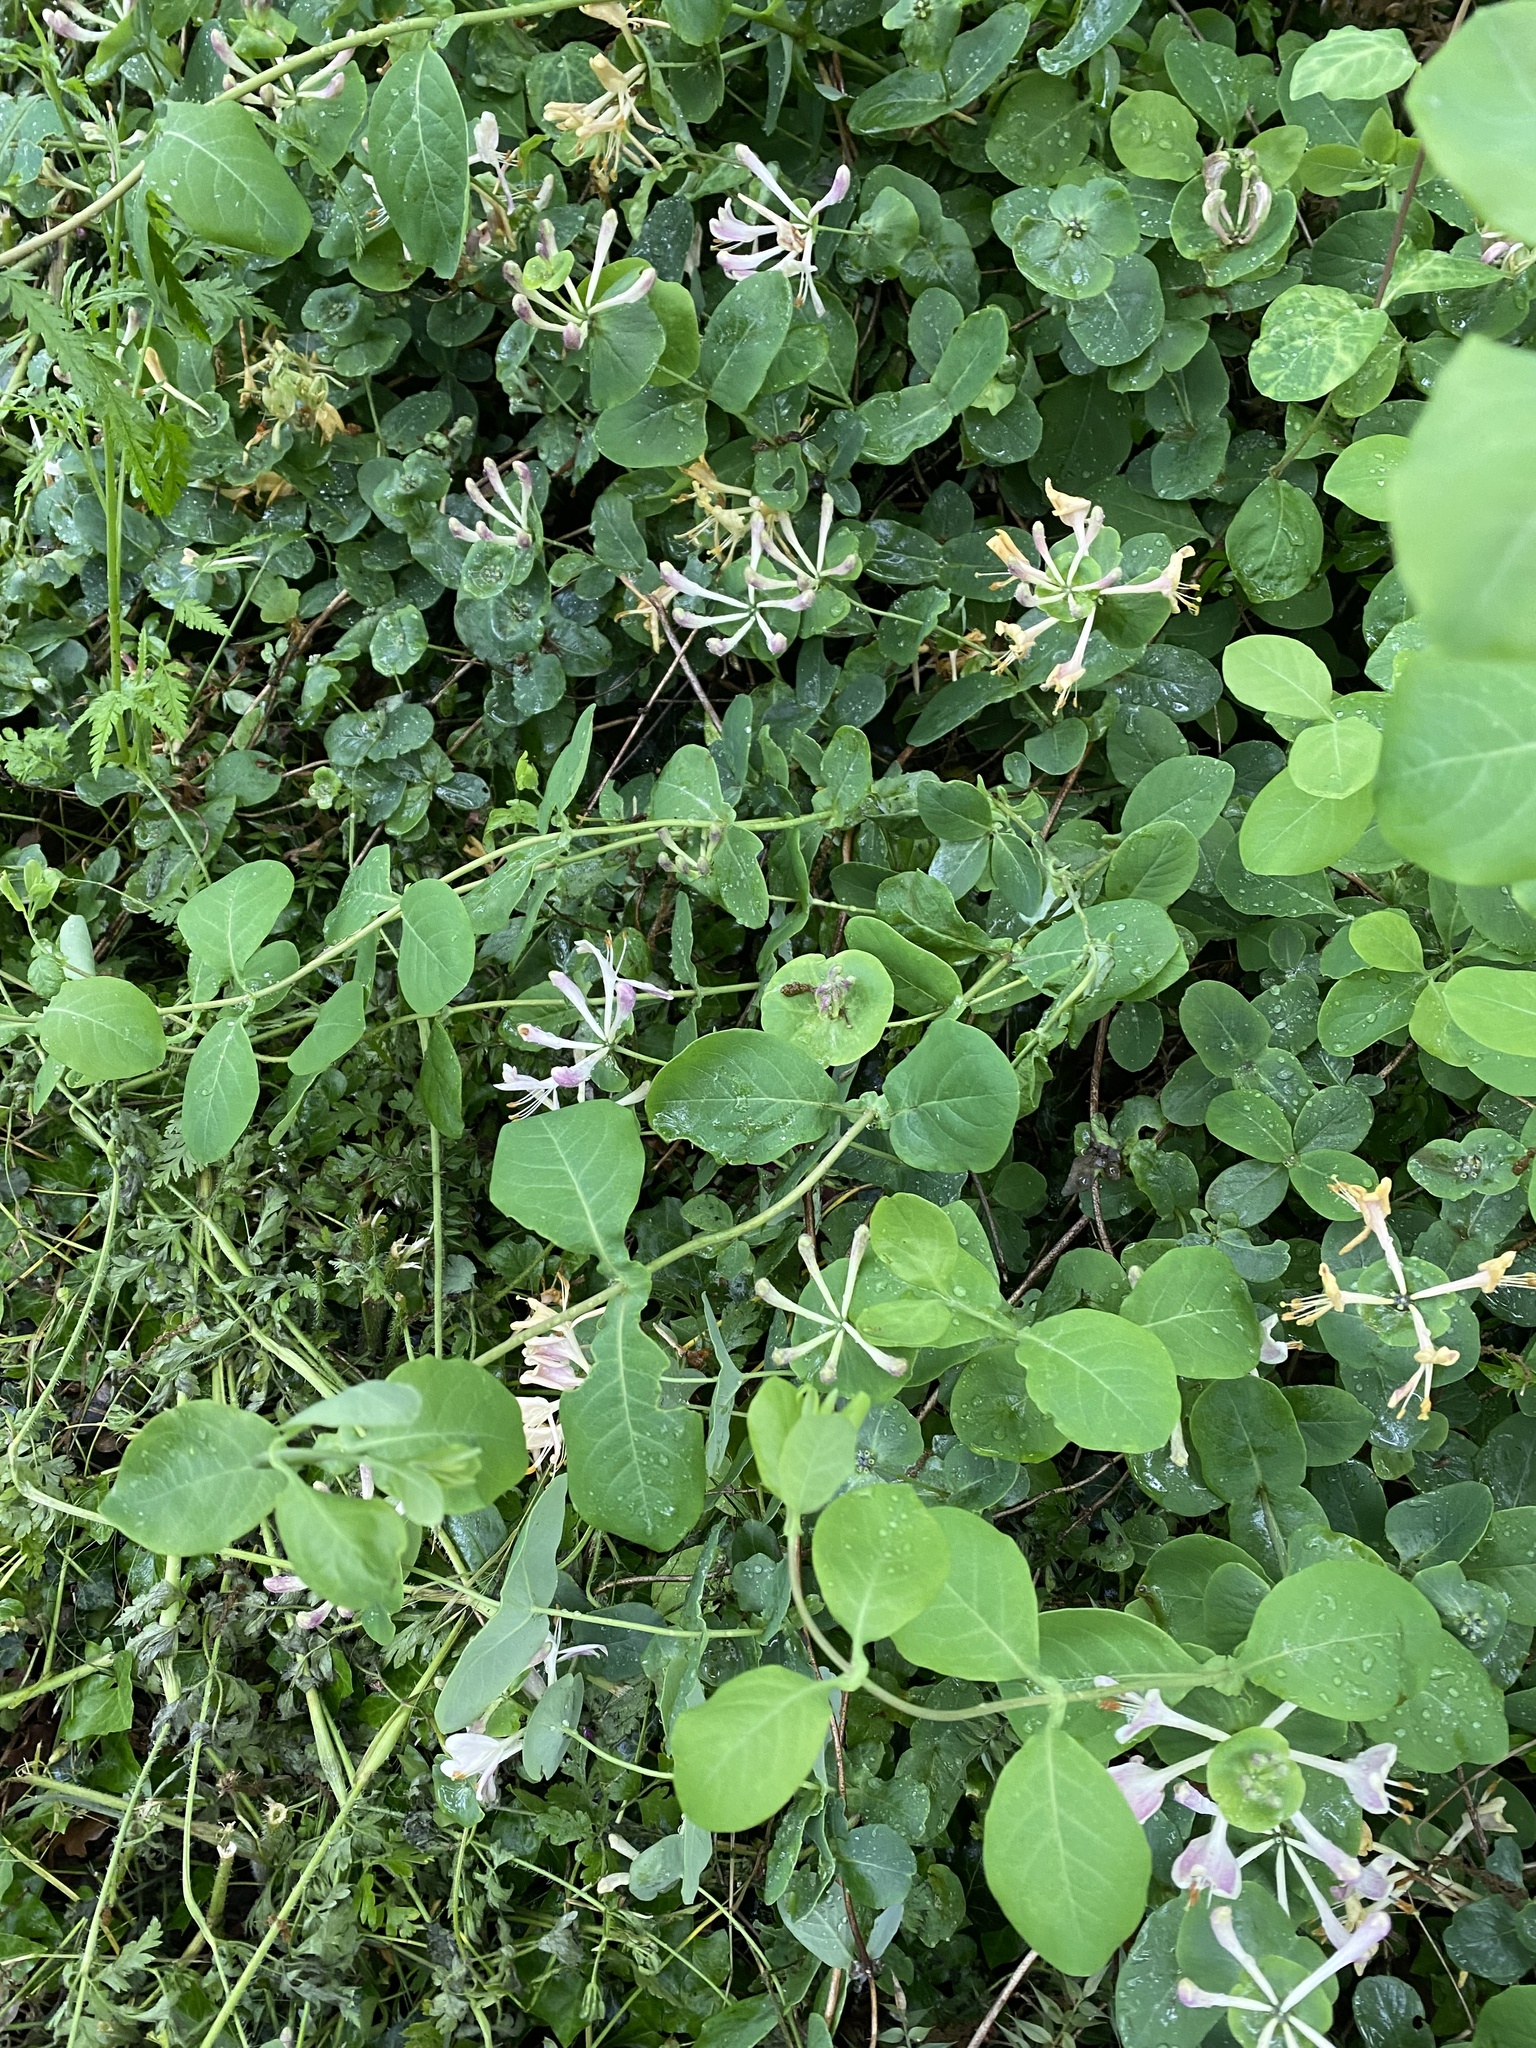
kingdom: Plantae
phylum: Tracheophyta
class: Magnoliopsida
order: Dipsacales
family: Caprifoliaceae
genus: Lonicera
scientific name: Lonicera caprifolium
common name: Perfoliate honeysuckle
